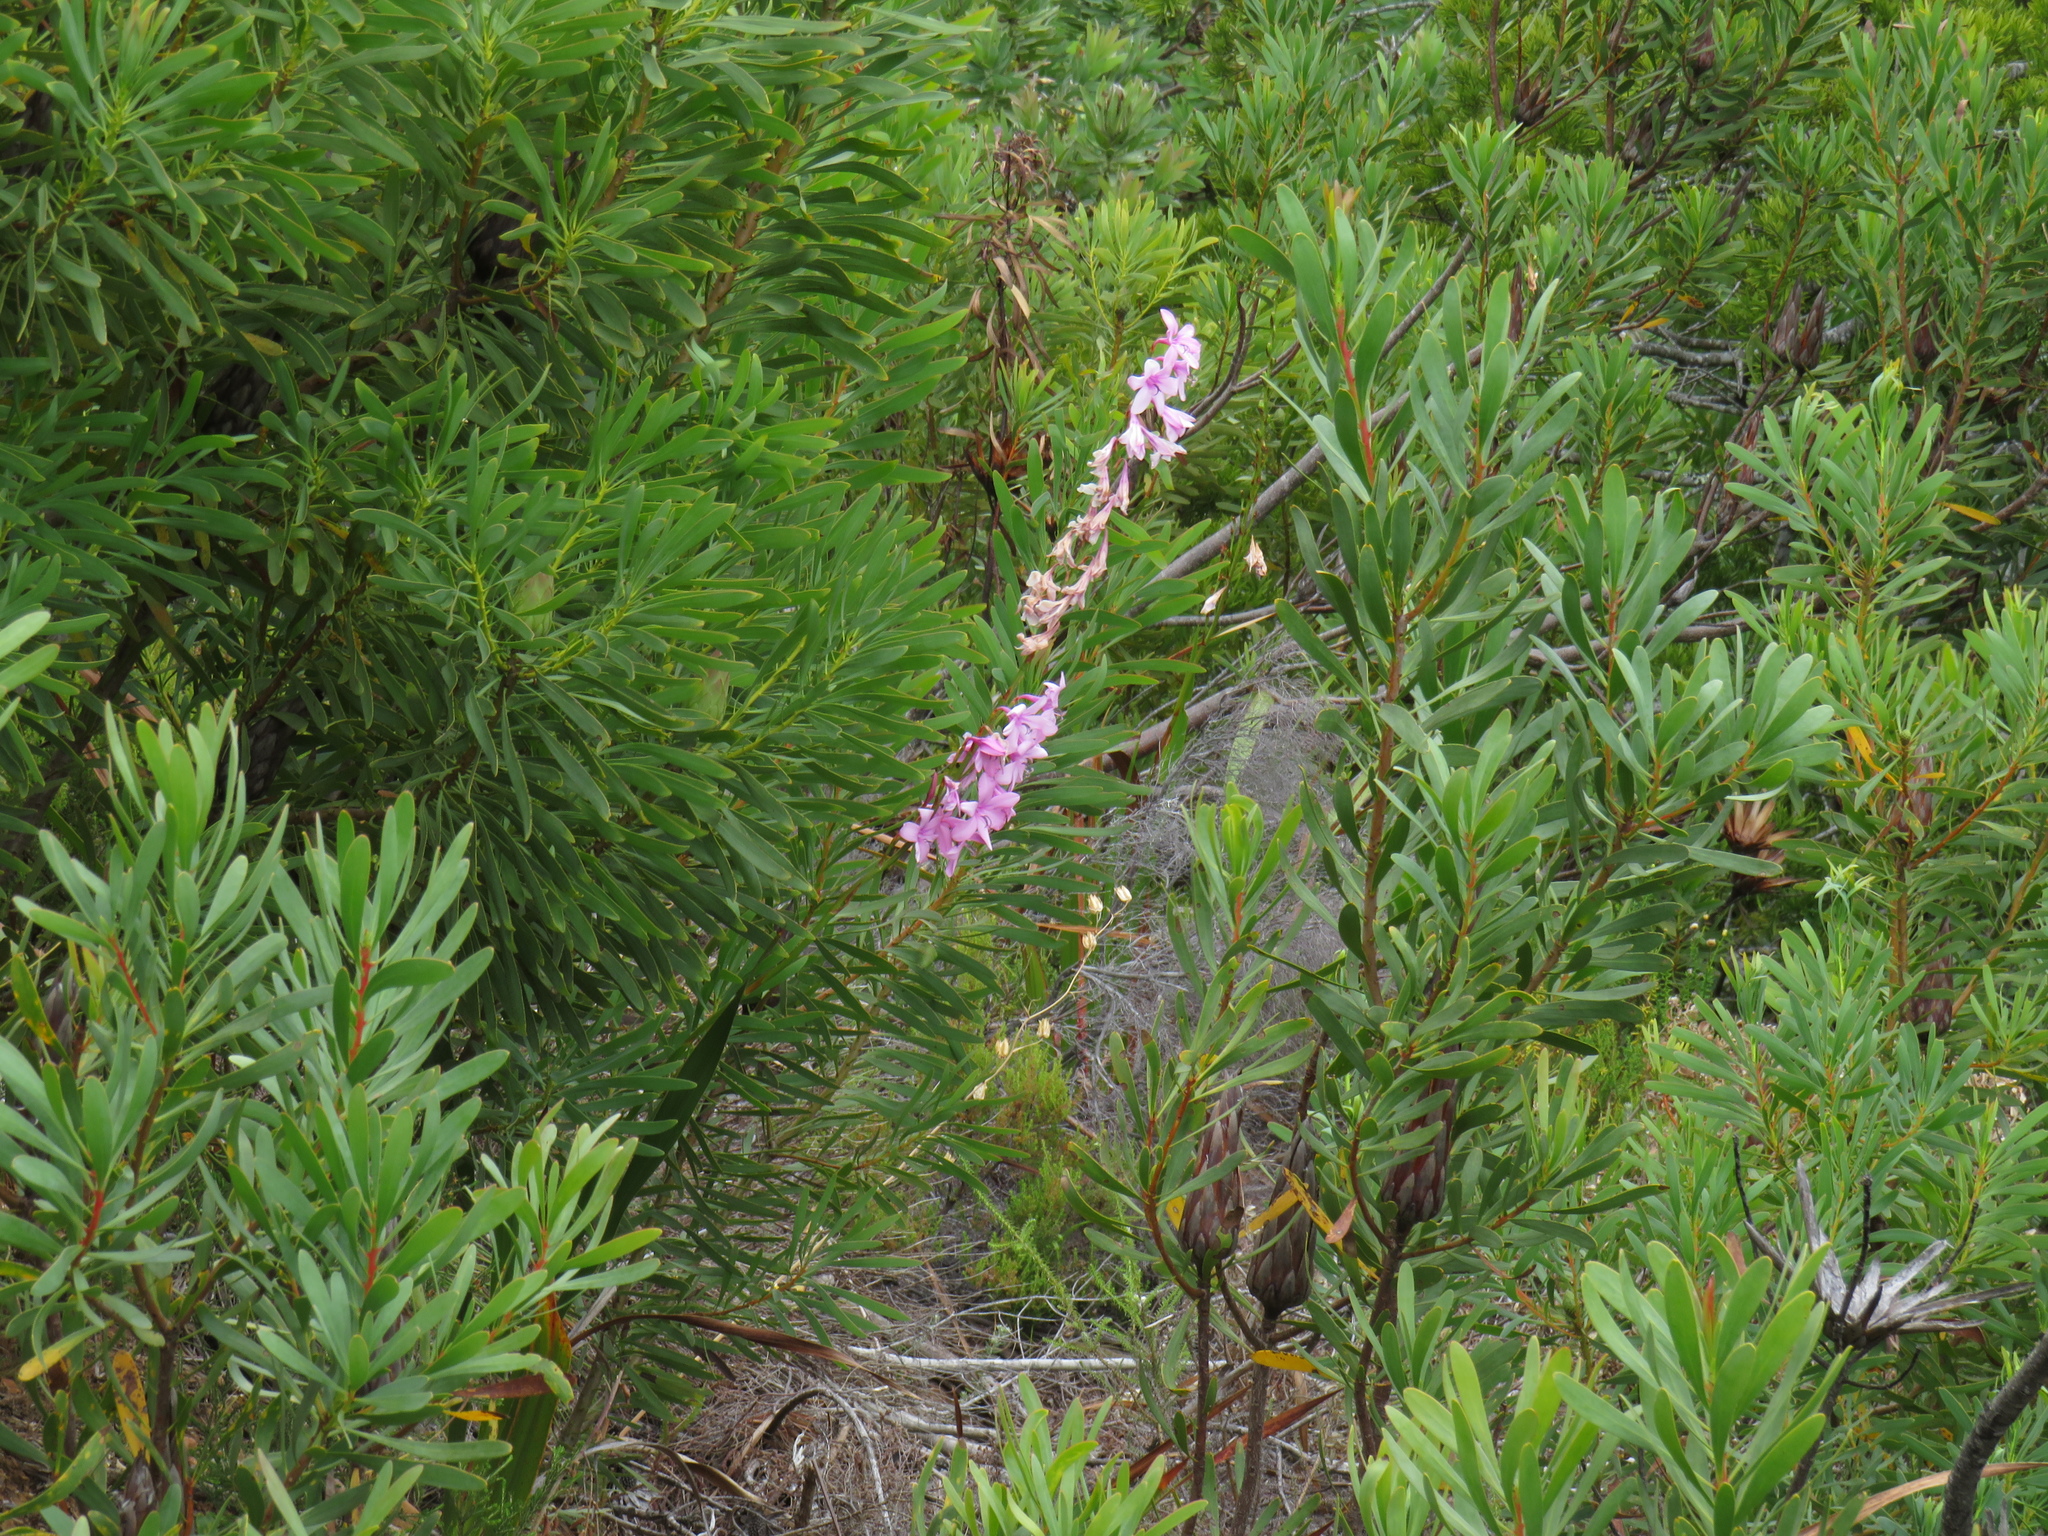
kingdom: Plantae
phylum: Tracheophyta
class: Liliopsida
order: Asparagales
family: Iridaceae
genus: Watsonia
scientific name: Watsonia borbonica
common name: Bugle-lily
